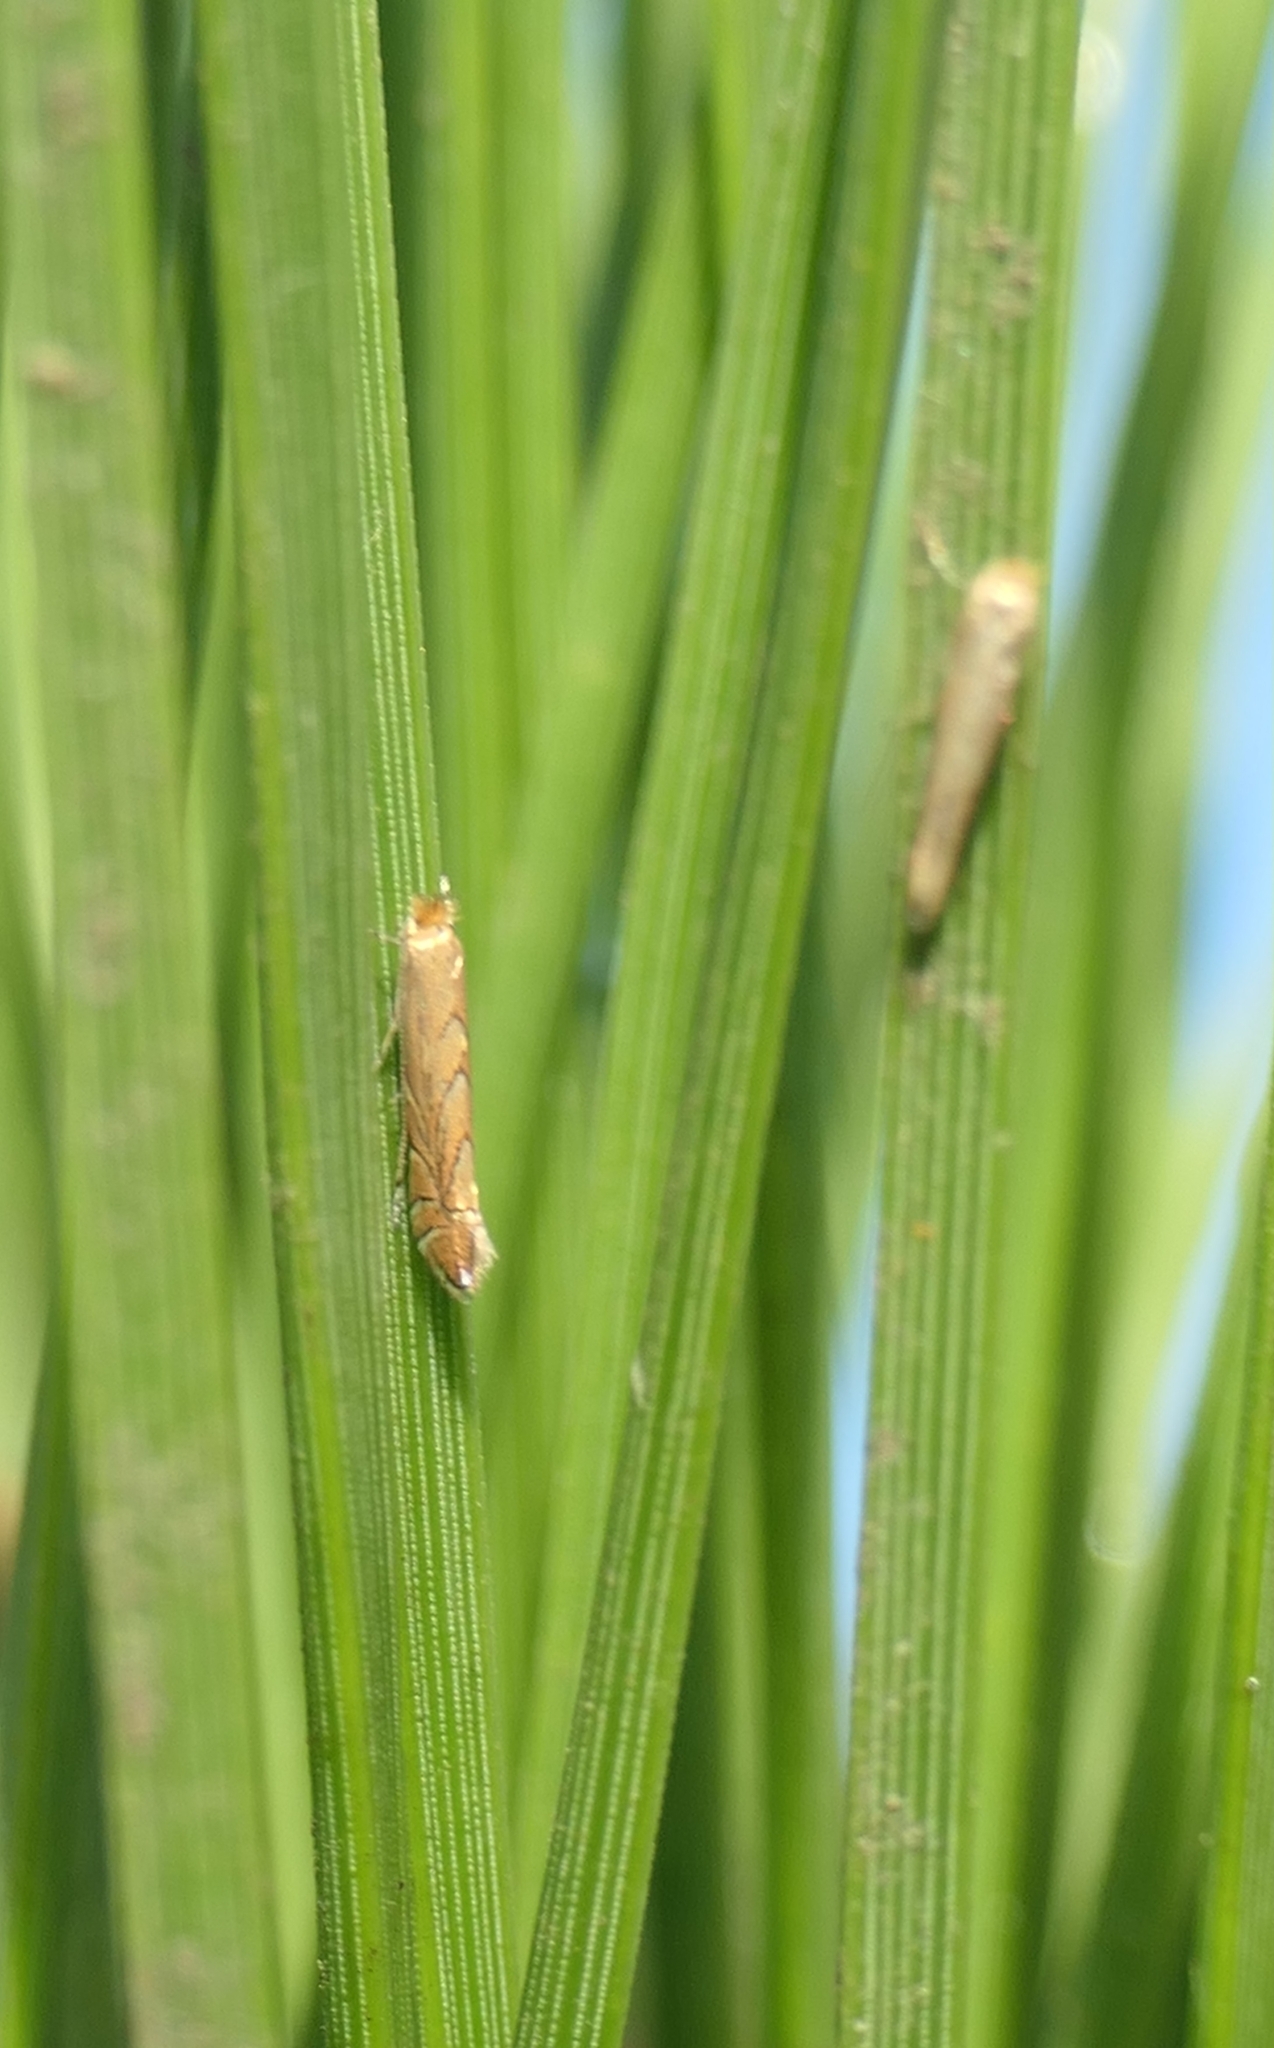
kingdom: Animalia
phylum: Arthropoda
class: Insecta
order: Lepidoptera
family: Gracillariidae
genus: Phyllonorycter
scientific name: Phyllonorycter messaniella
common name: Garden midget
